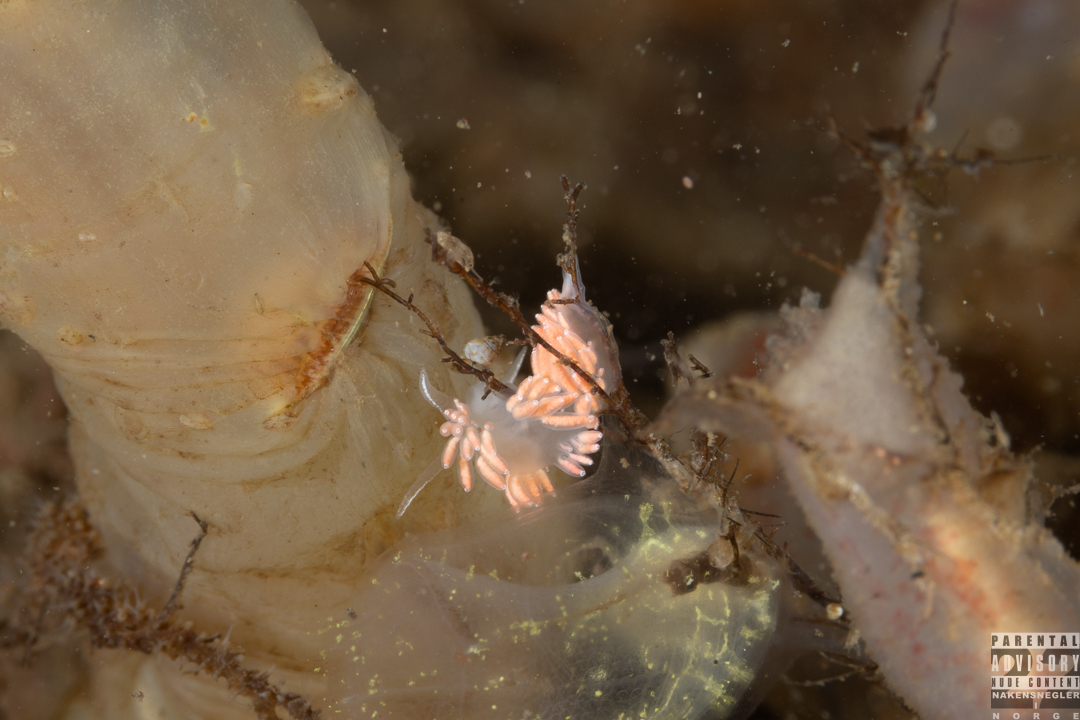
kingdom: Animalia
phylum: Mollusca
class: Gastropoda
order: Nudibranchia
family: Coryphellidae
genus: Coryphella
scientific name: Coryphella verrucosa
